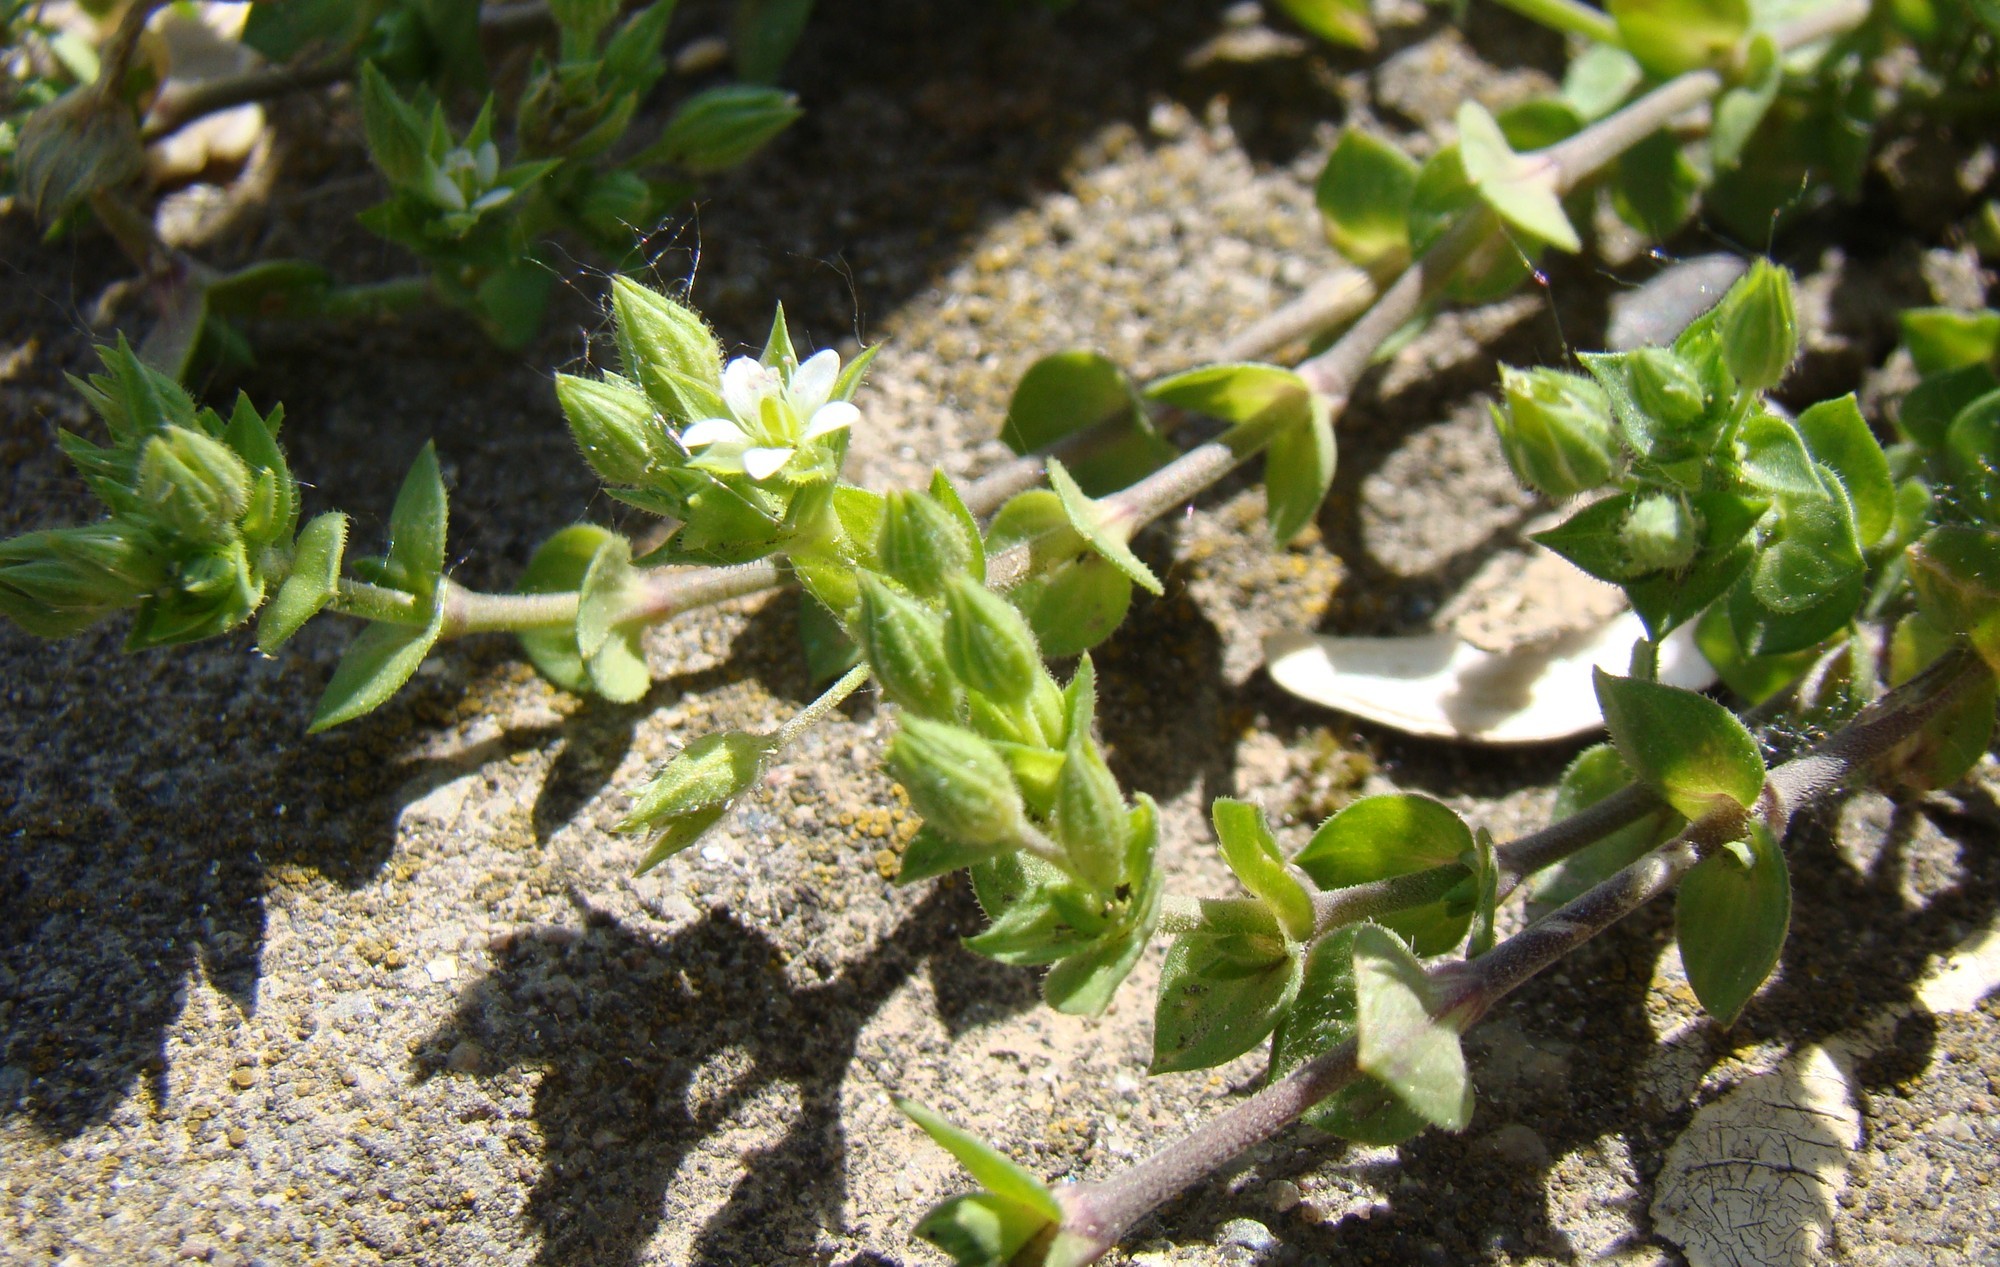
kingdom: Plantae
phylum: Tracheophyta
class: Magnoliopsida
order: Caryophyllales
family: Caryophyllaceae
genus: Arenaria
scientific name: Arenaria leptoclados
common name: Thyme-leaved sandwort
